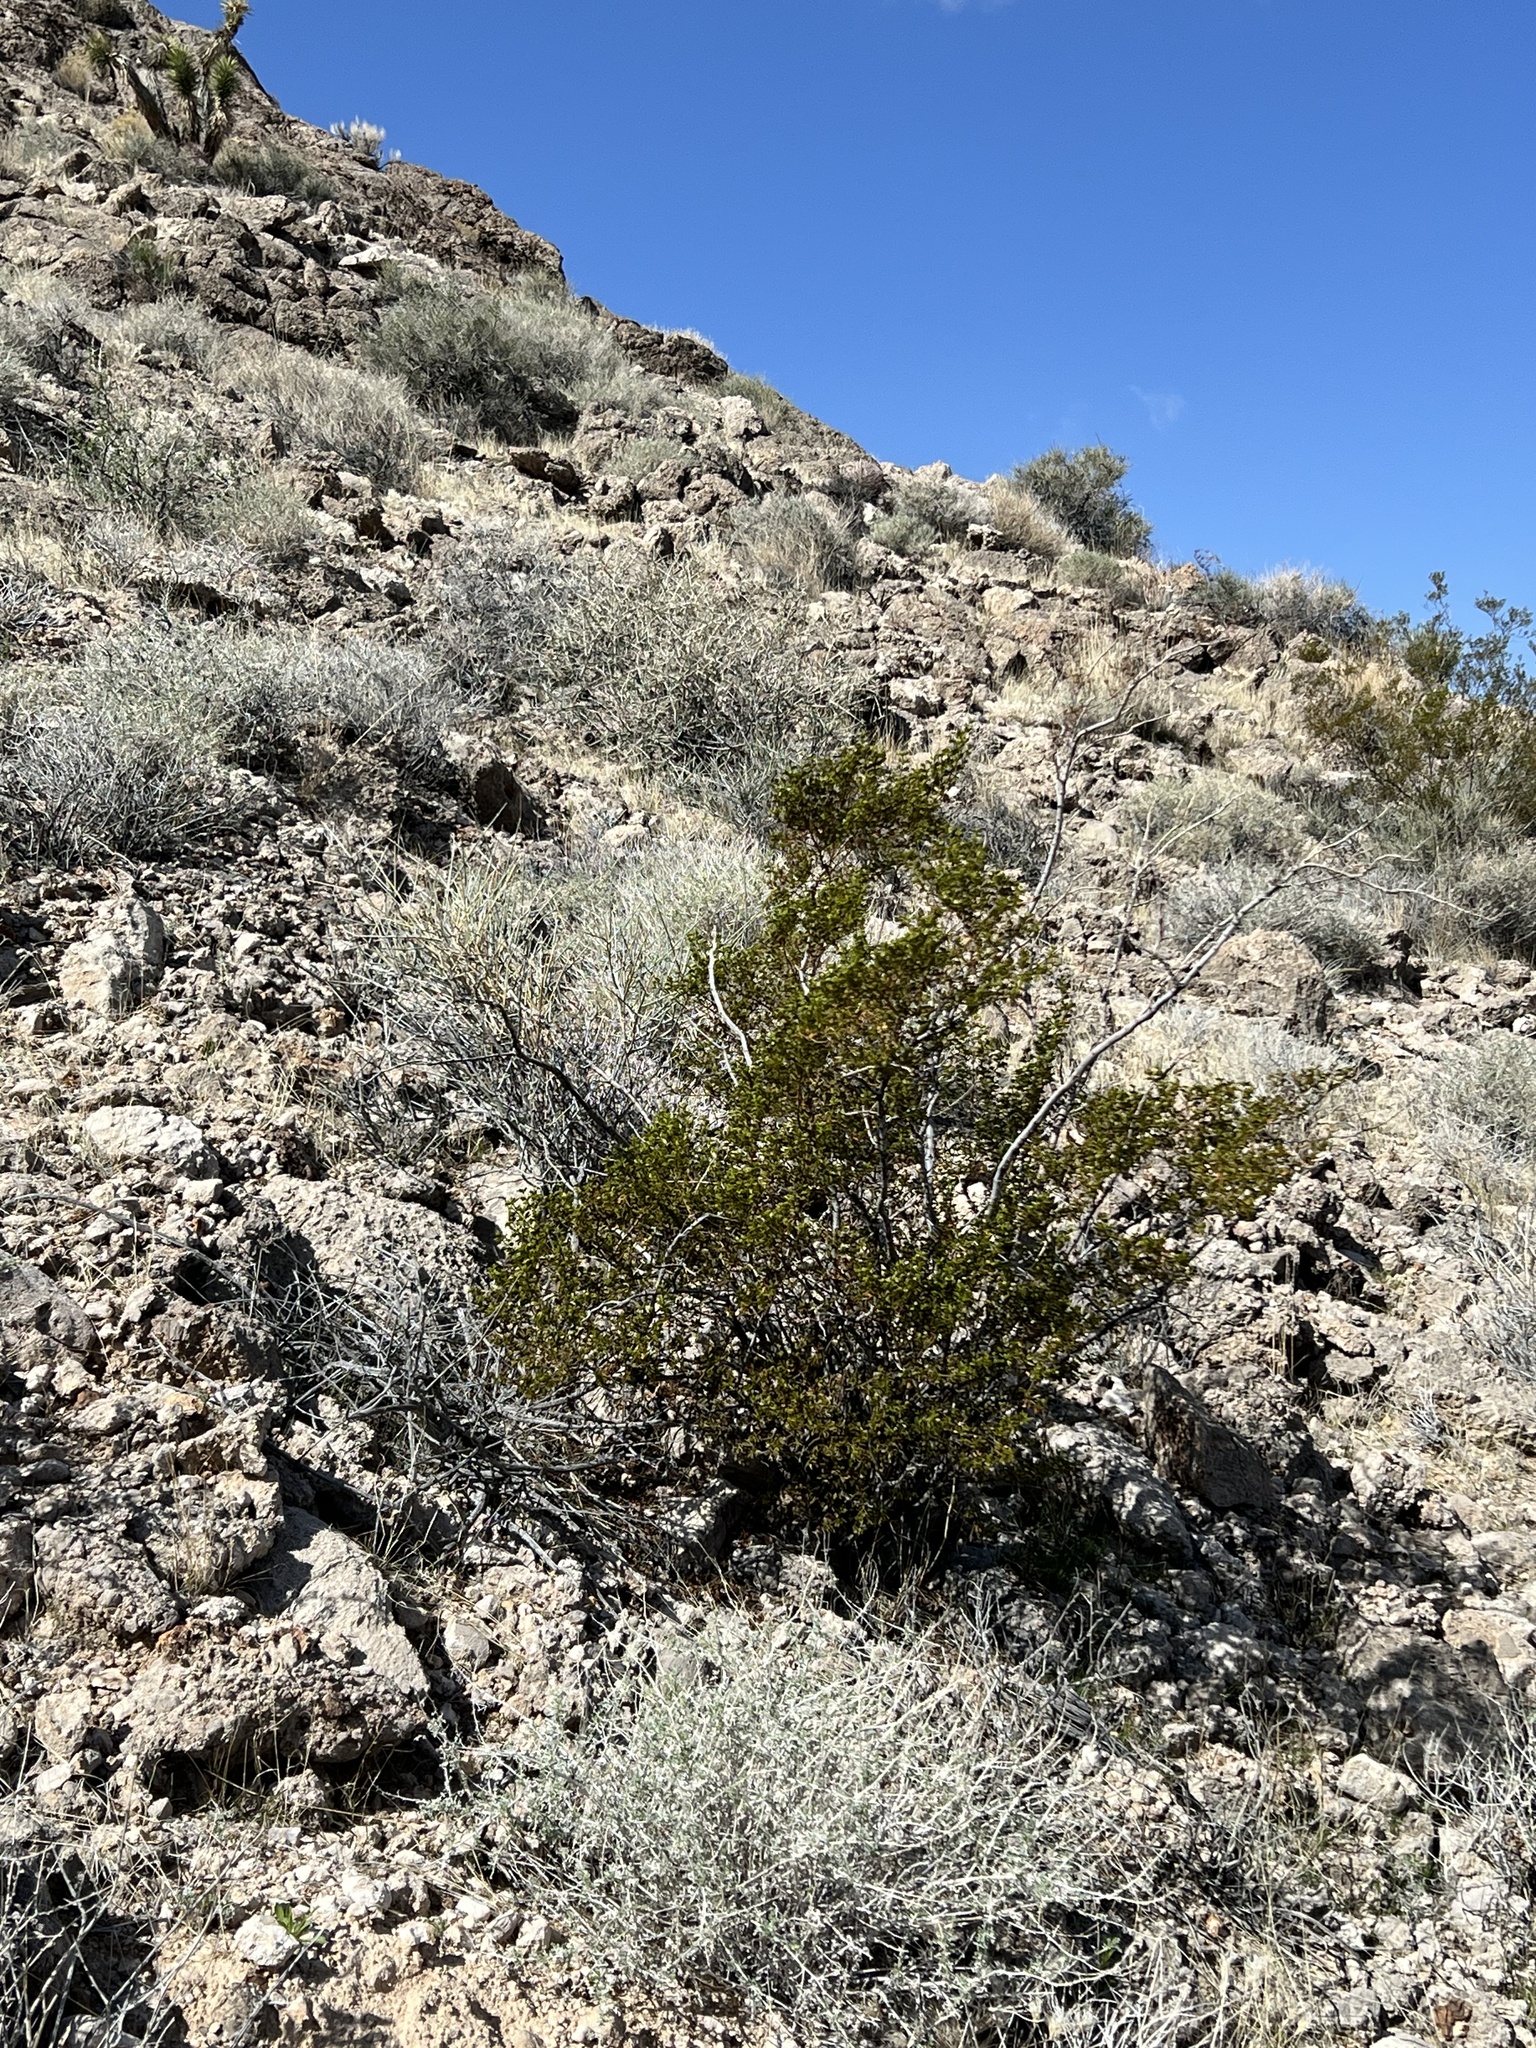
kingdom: Plantae
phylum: Tracheophyta
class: Magnoliopsida
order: Zygophyllales
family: Zygophyllaceae
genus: Larrea
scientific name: Larrea tridentata
